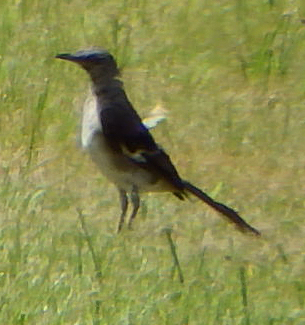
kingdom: Animalia
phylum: Chordata
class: Aves
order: Passeriformes
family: Mimidae
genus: Mimus
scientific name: Mimus polyglottos
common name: Northern mockingbird
